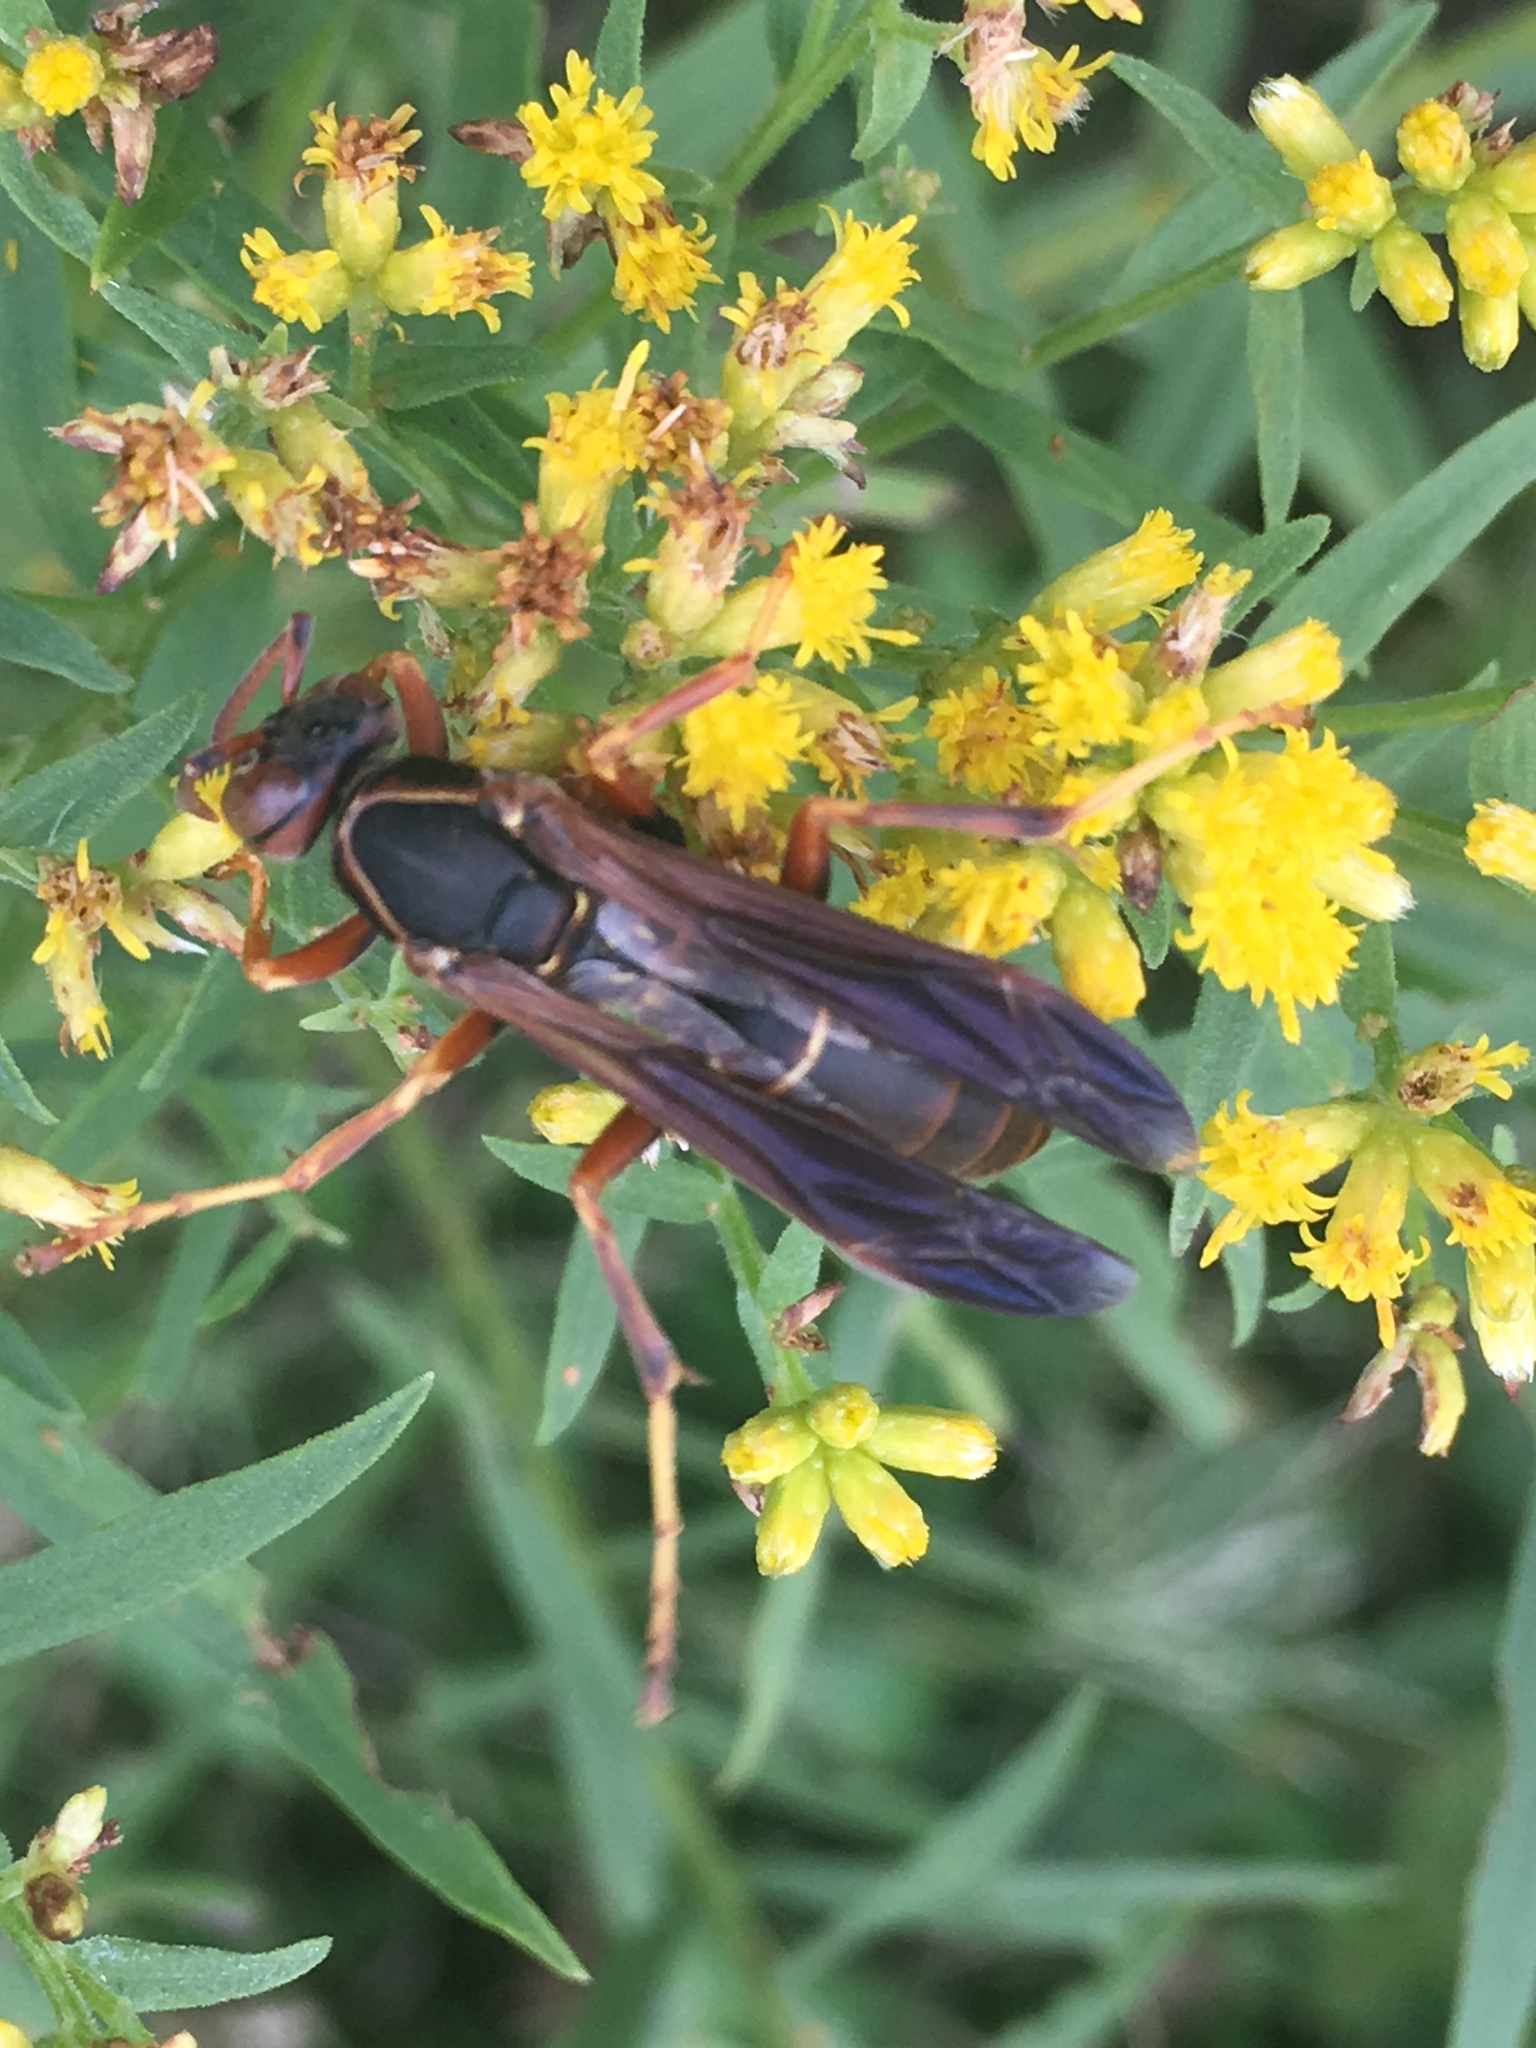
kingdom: Animalia
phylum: Arthropoda
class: Insecta
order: Hymenoptera
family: Eumenidae
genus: Polistes
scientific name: Polistes fuscatus
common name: Dark paper wasp
